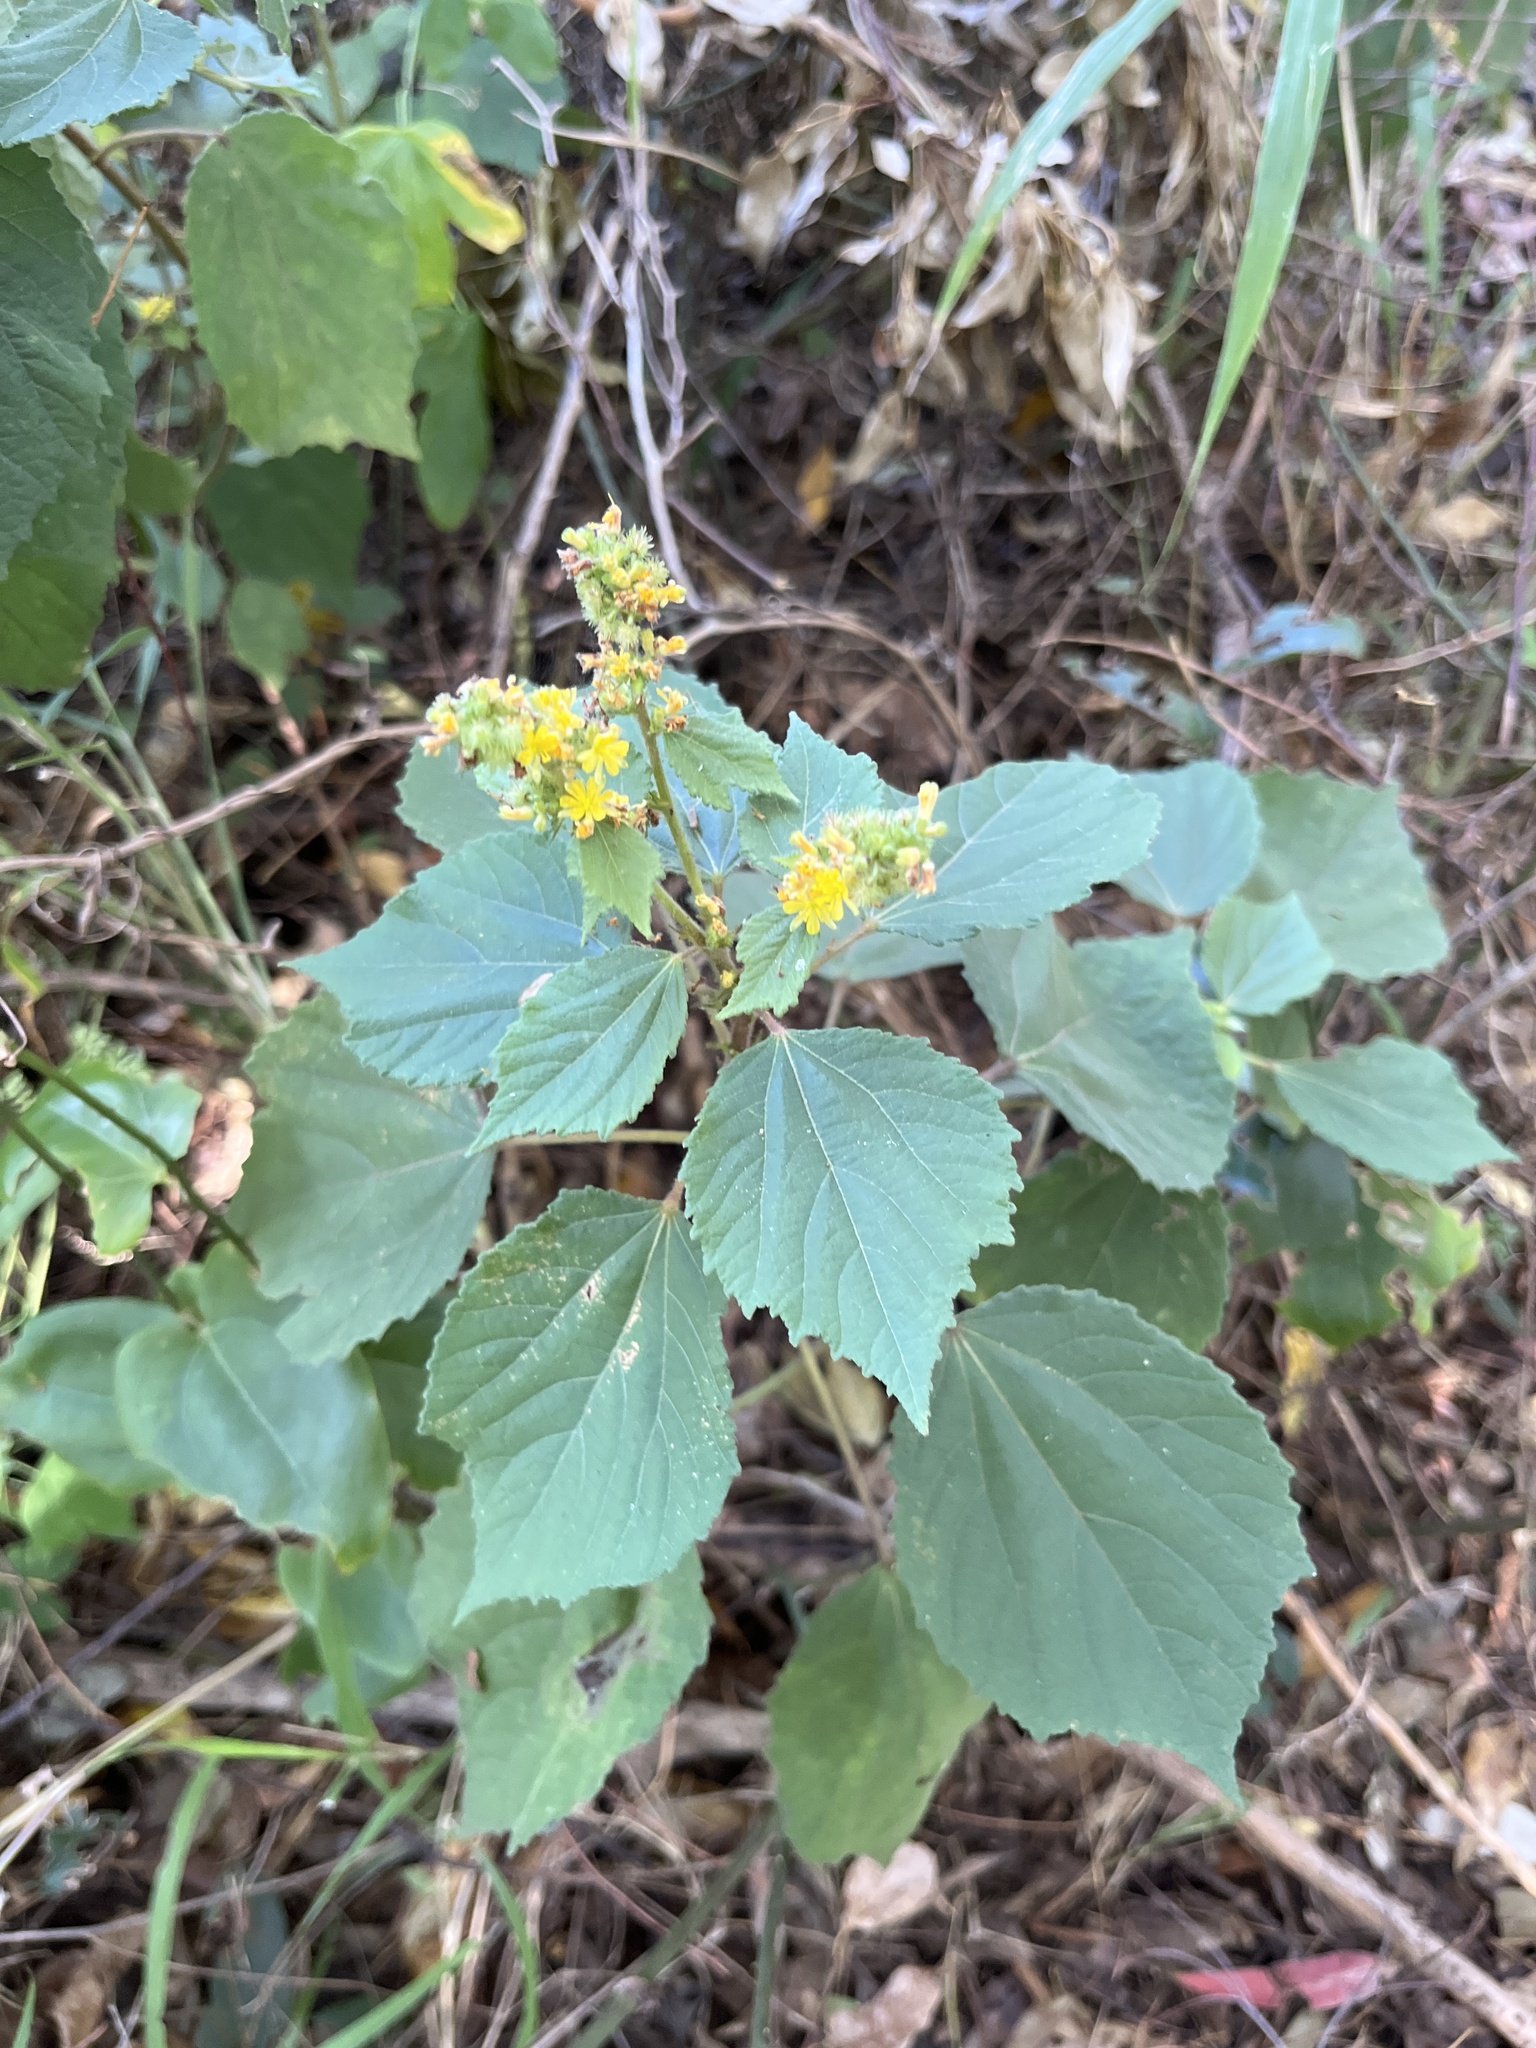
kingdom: Plantae
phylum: Tracheophyta
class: Magnoliopsida
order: Malvales
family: Malvaceae
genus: Triumfetta
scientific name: Triumfetta rhomboidea
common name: Diamond burbark
